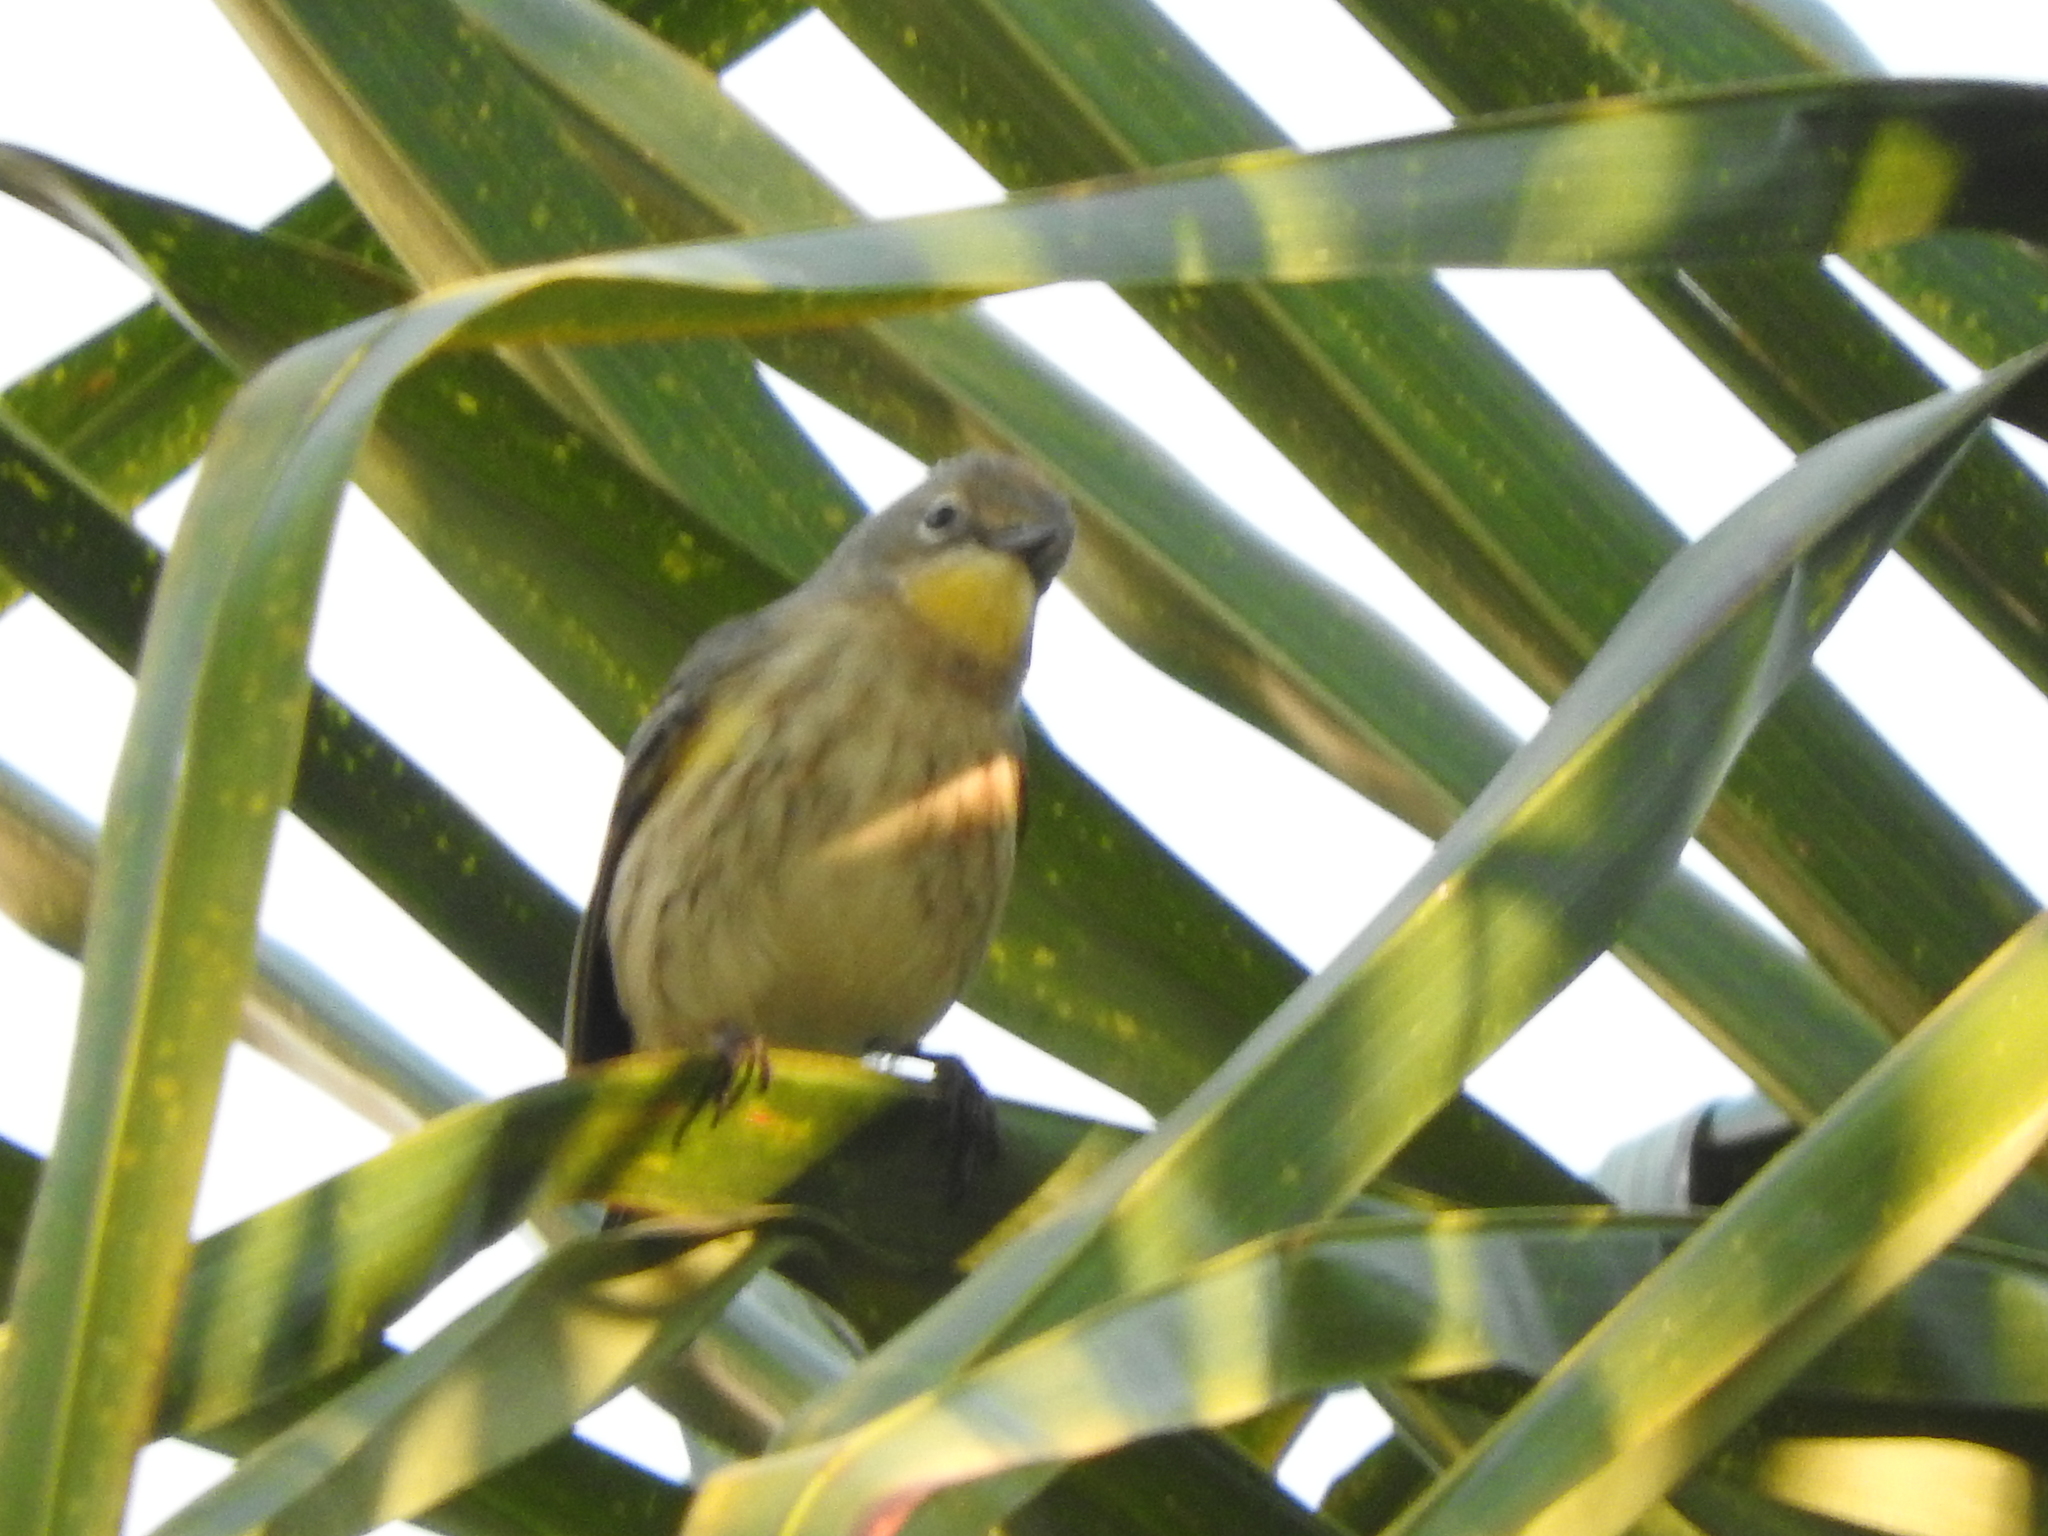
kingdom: Animalia
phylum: Chordata
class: Aves
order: Passeriformes
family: Parulidae
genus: Setophaga
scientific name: Setophaga coronata
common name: Myrtle warbler
